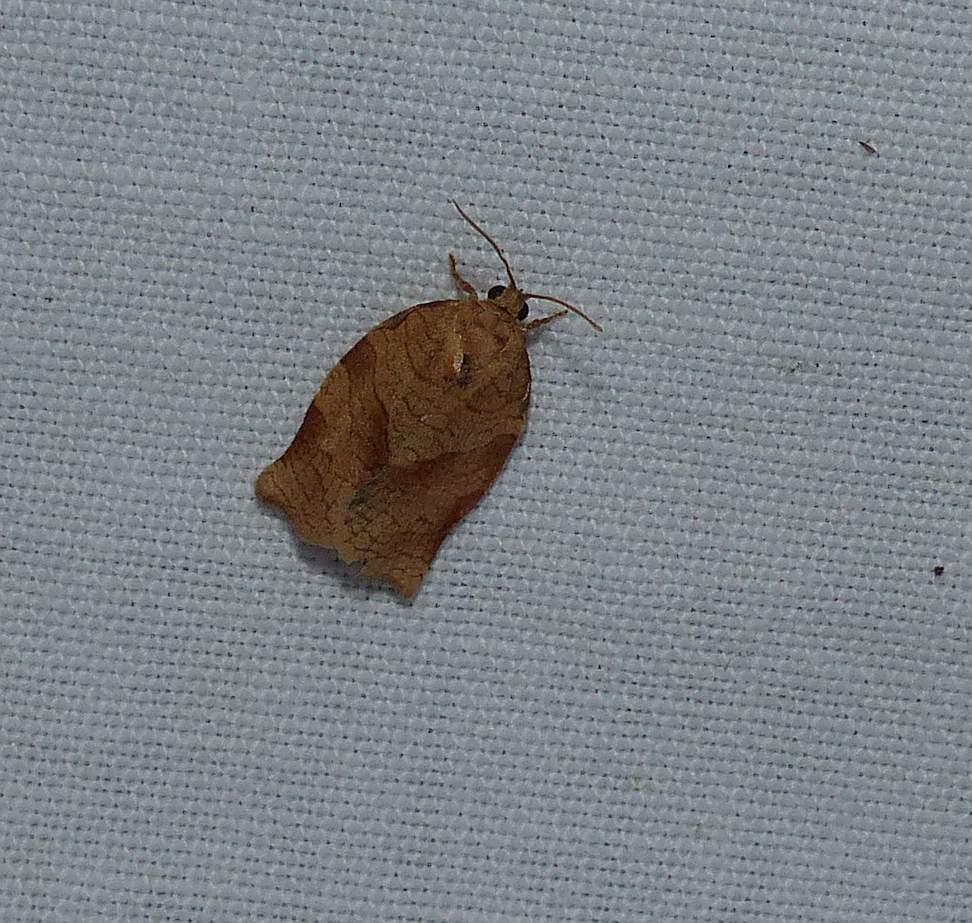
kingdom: Animalia
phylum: Arthropoda
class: Insecta
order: Lepidoptera
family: Tortricidae
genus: Choristoneura
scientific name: Choristoneura rosaceana
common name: Oblique-banded leafroller moth
